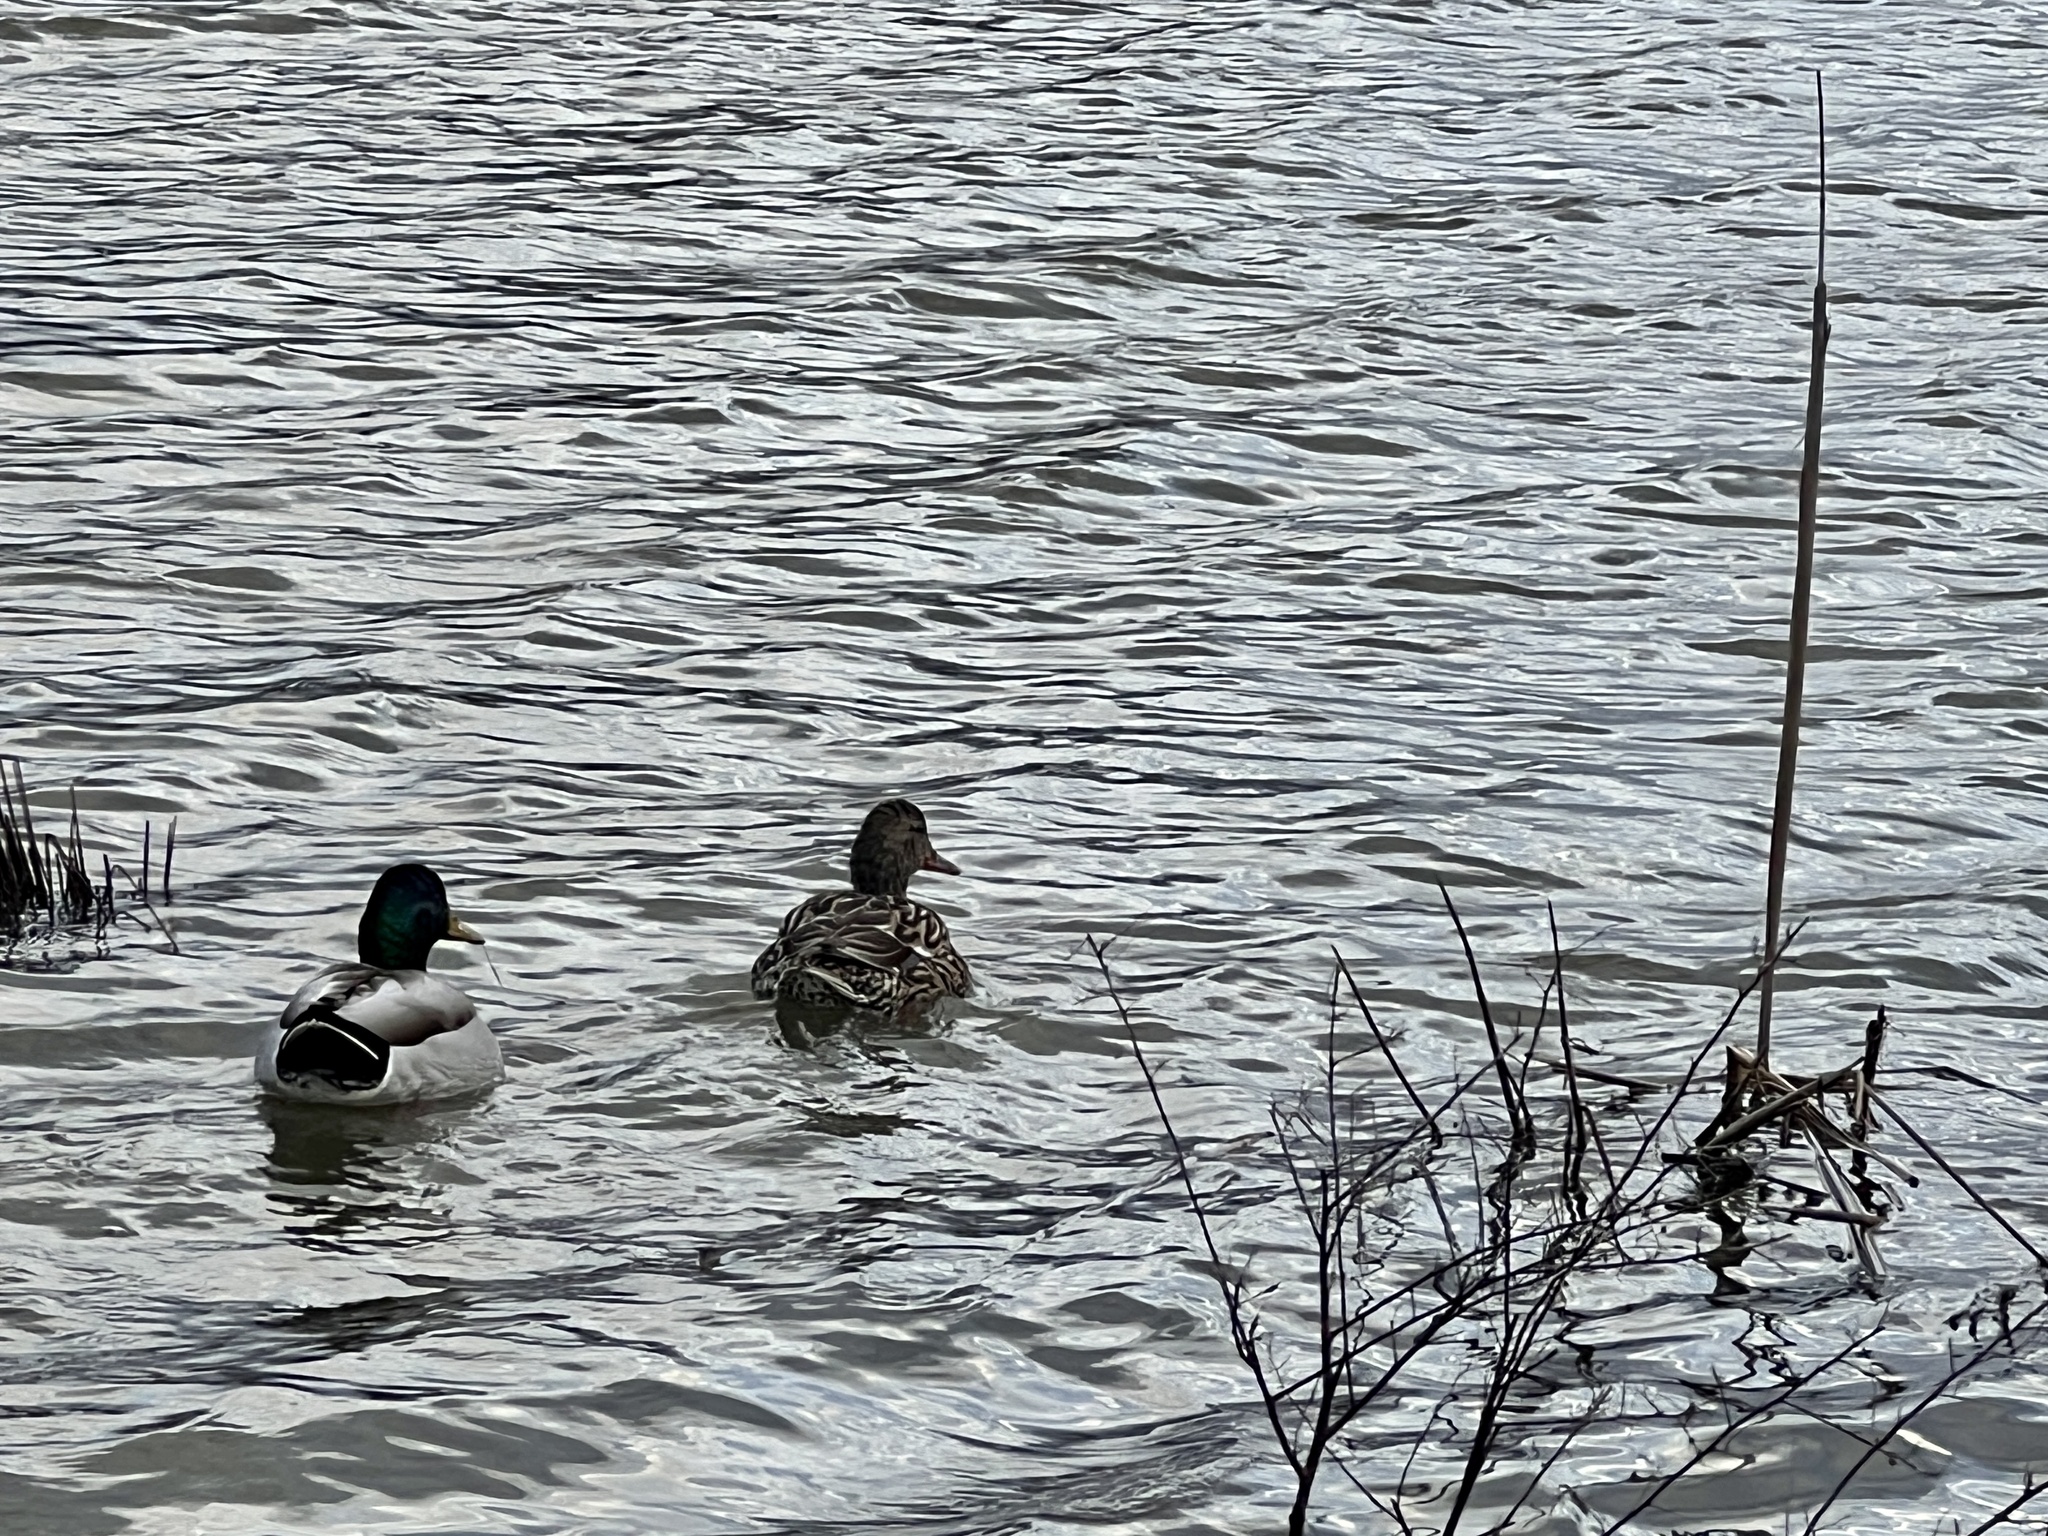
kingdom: Animalia
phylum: Chordata
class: Aves
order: Anseriformes
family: Anatidae
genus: Anas
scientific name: Anas platyrhynchos
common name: Mallard
